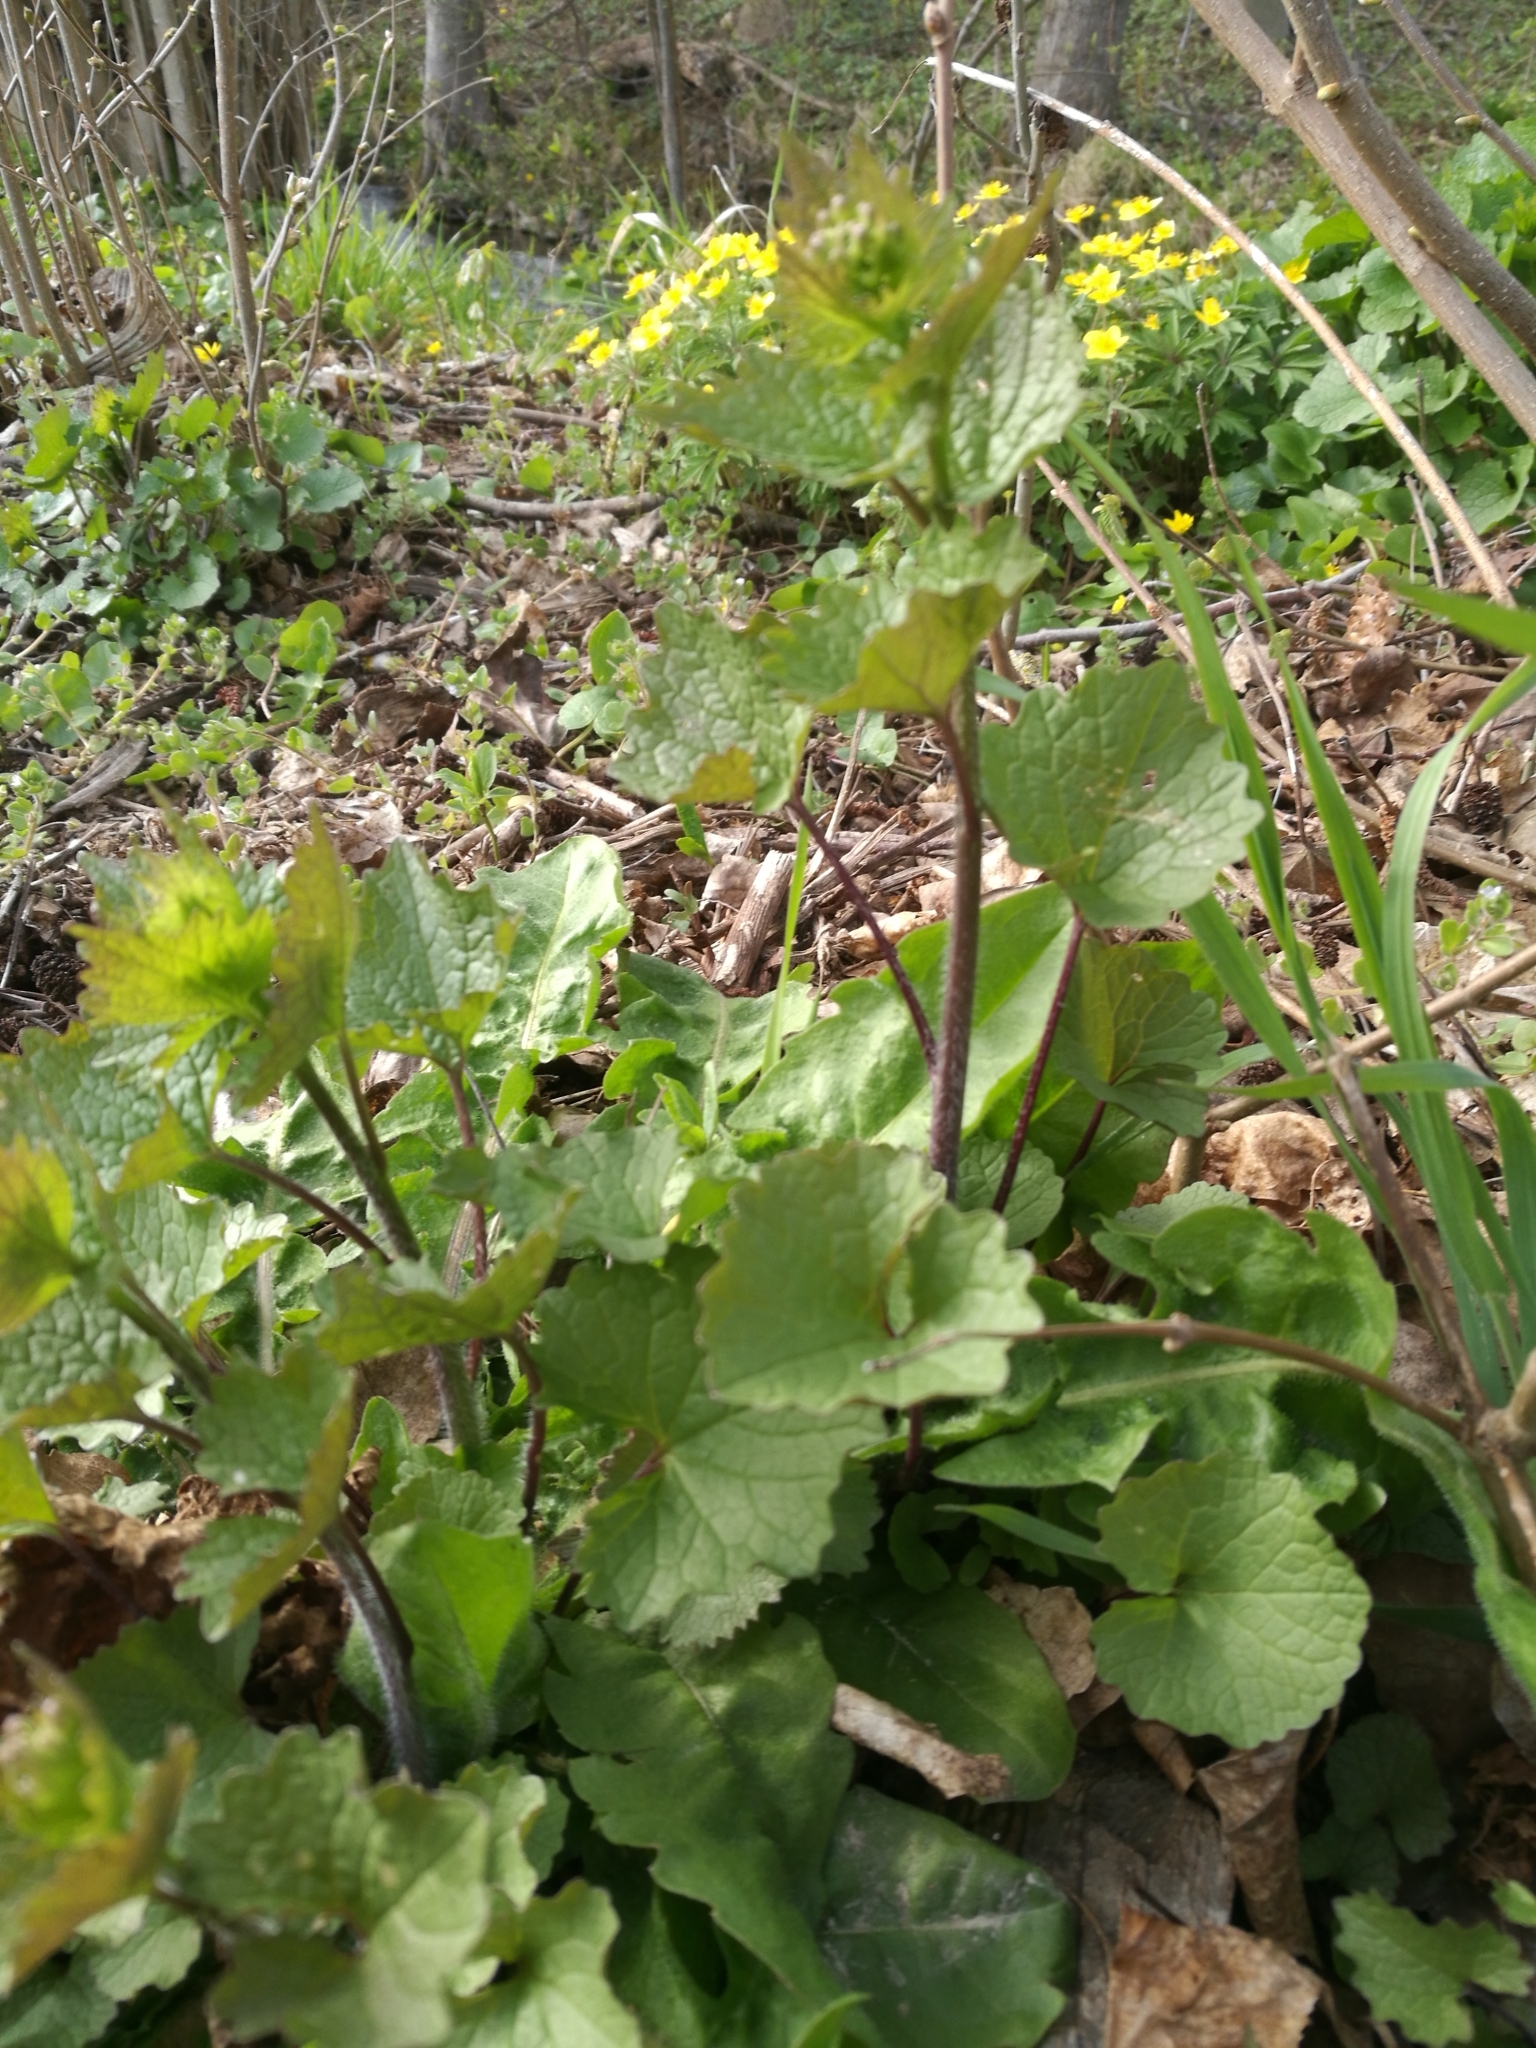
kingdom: Plantae
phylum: Tracheophyta
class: Magnoliopsida
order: Brassicales
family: Brassicaceae
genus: Alliaria
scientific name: Alliaria petiolata
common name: Garlic mustard
